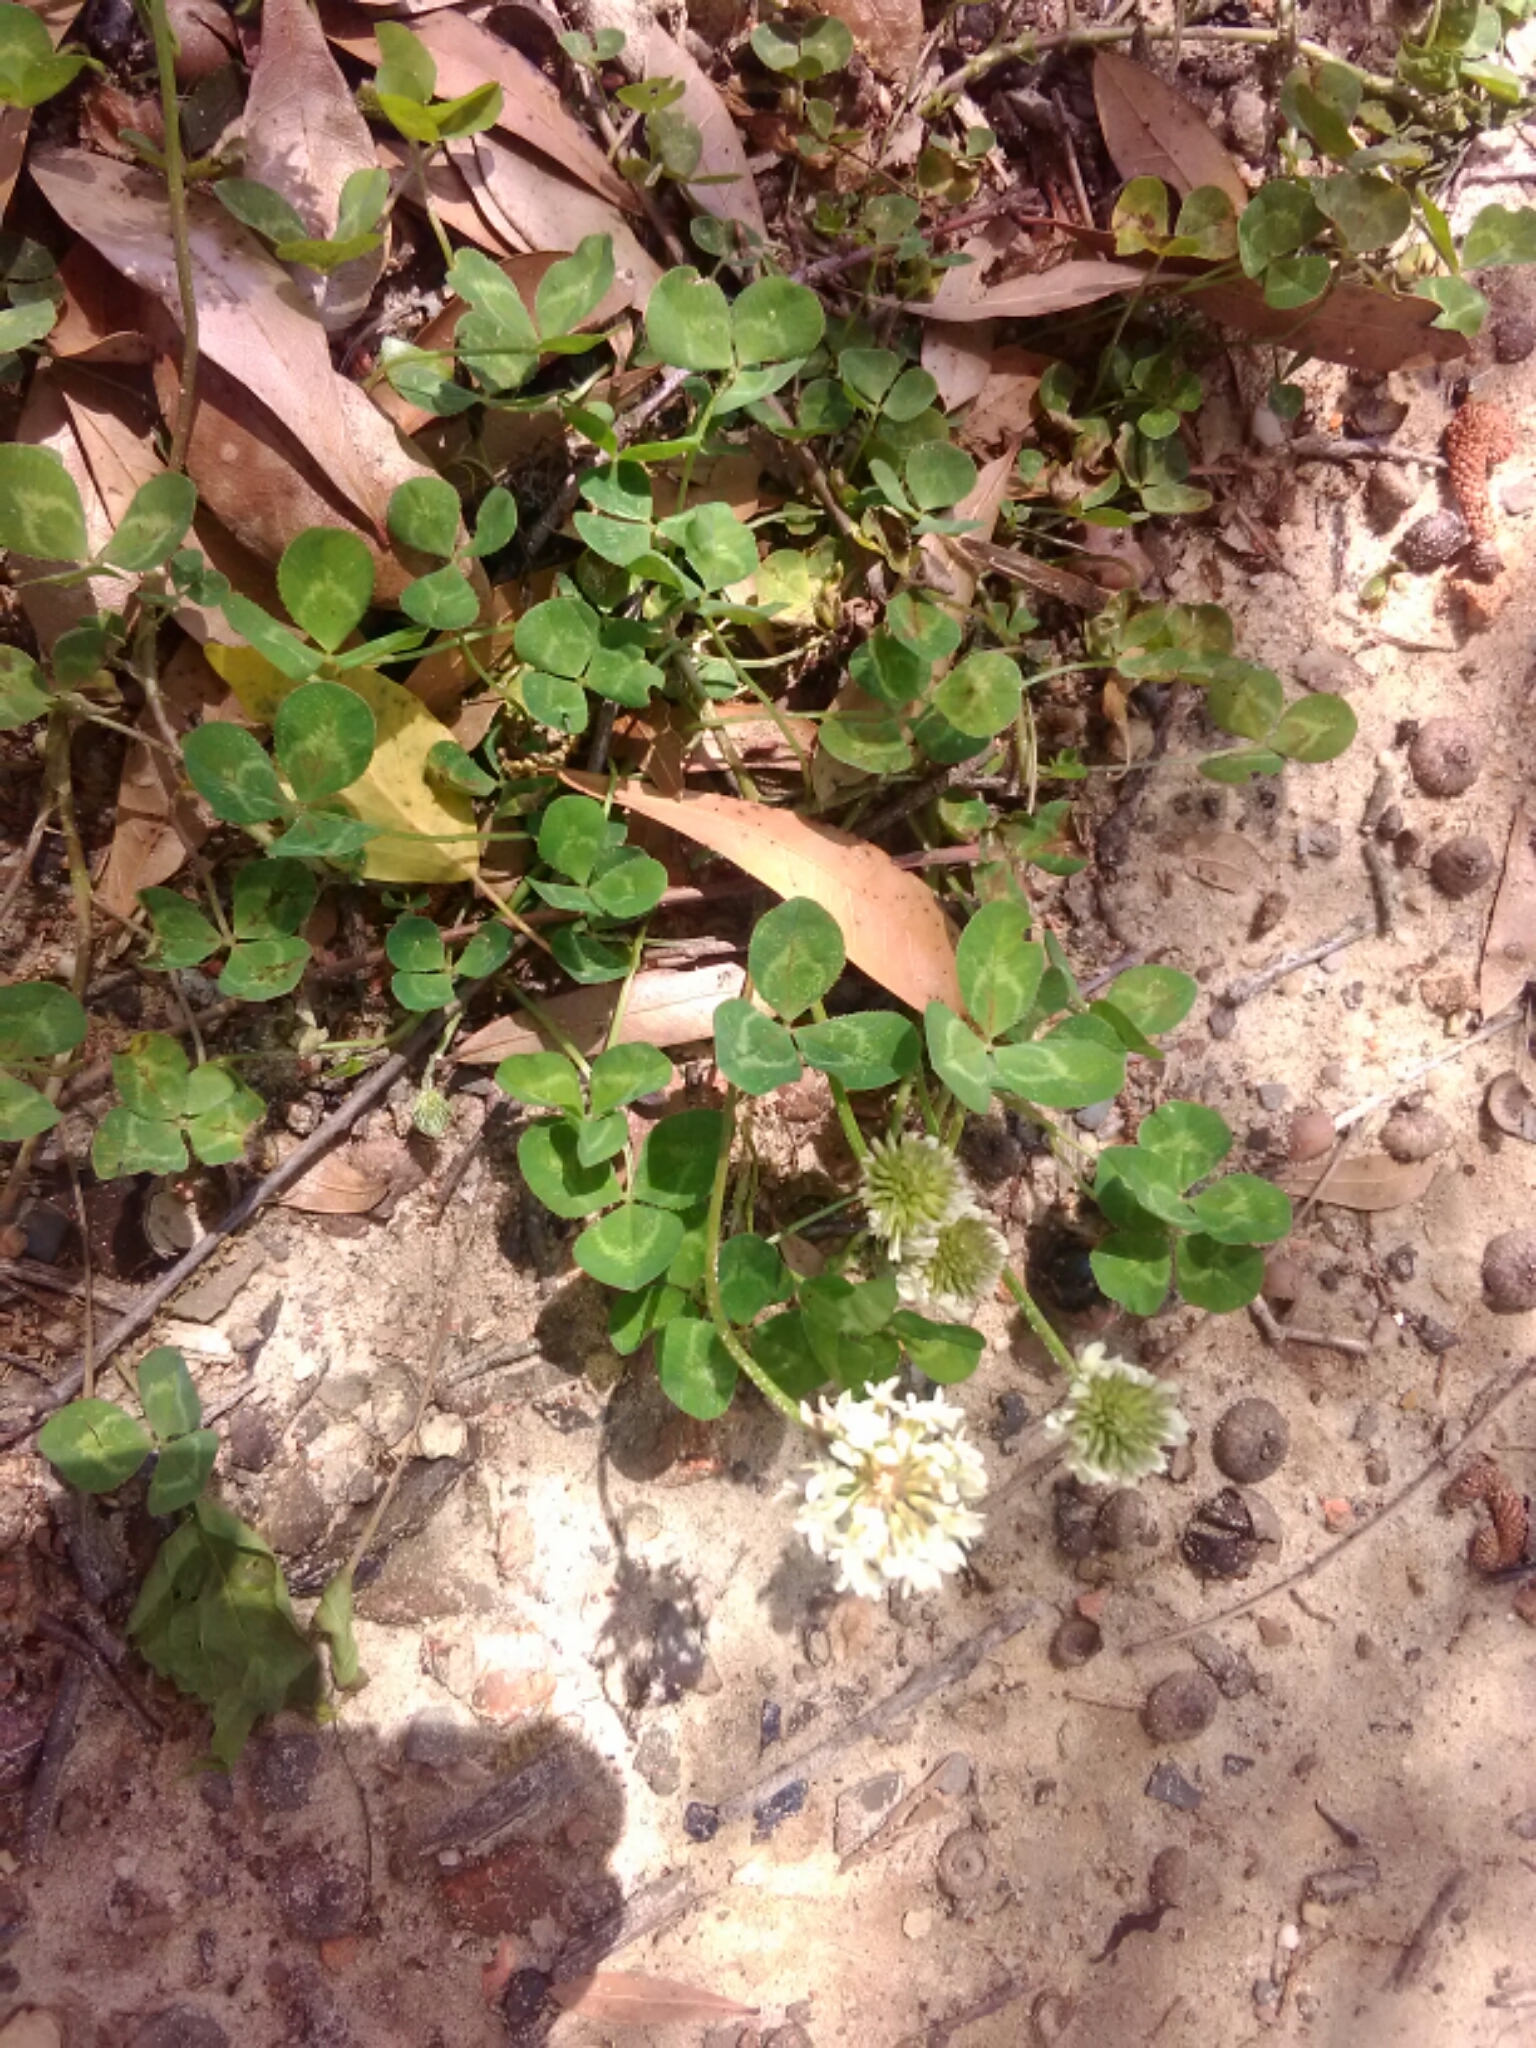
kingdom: Plantae
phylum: Tracheophyta
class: Magnoliopsida
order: Fabales
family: Fabaceae
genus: Trifolium
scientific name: Trifolium repens
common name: White clover
